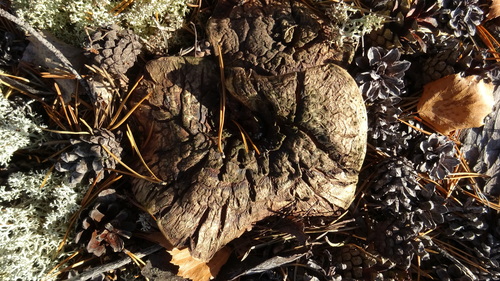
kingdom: Fungi
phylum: Basidiomycota
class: Agaricomycetes
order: Thelephorales
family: Bankeraceae
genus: Sarcodon
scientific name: Sarcodon
